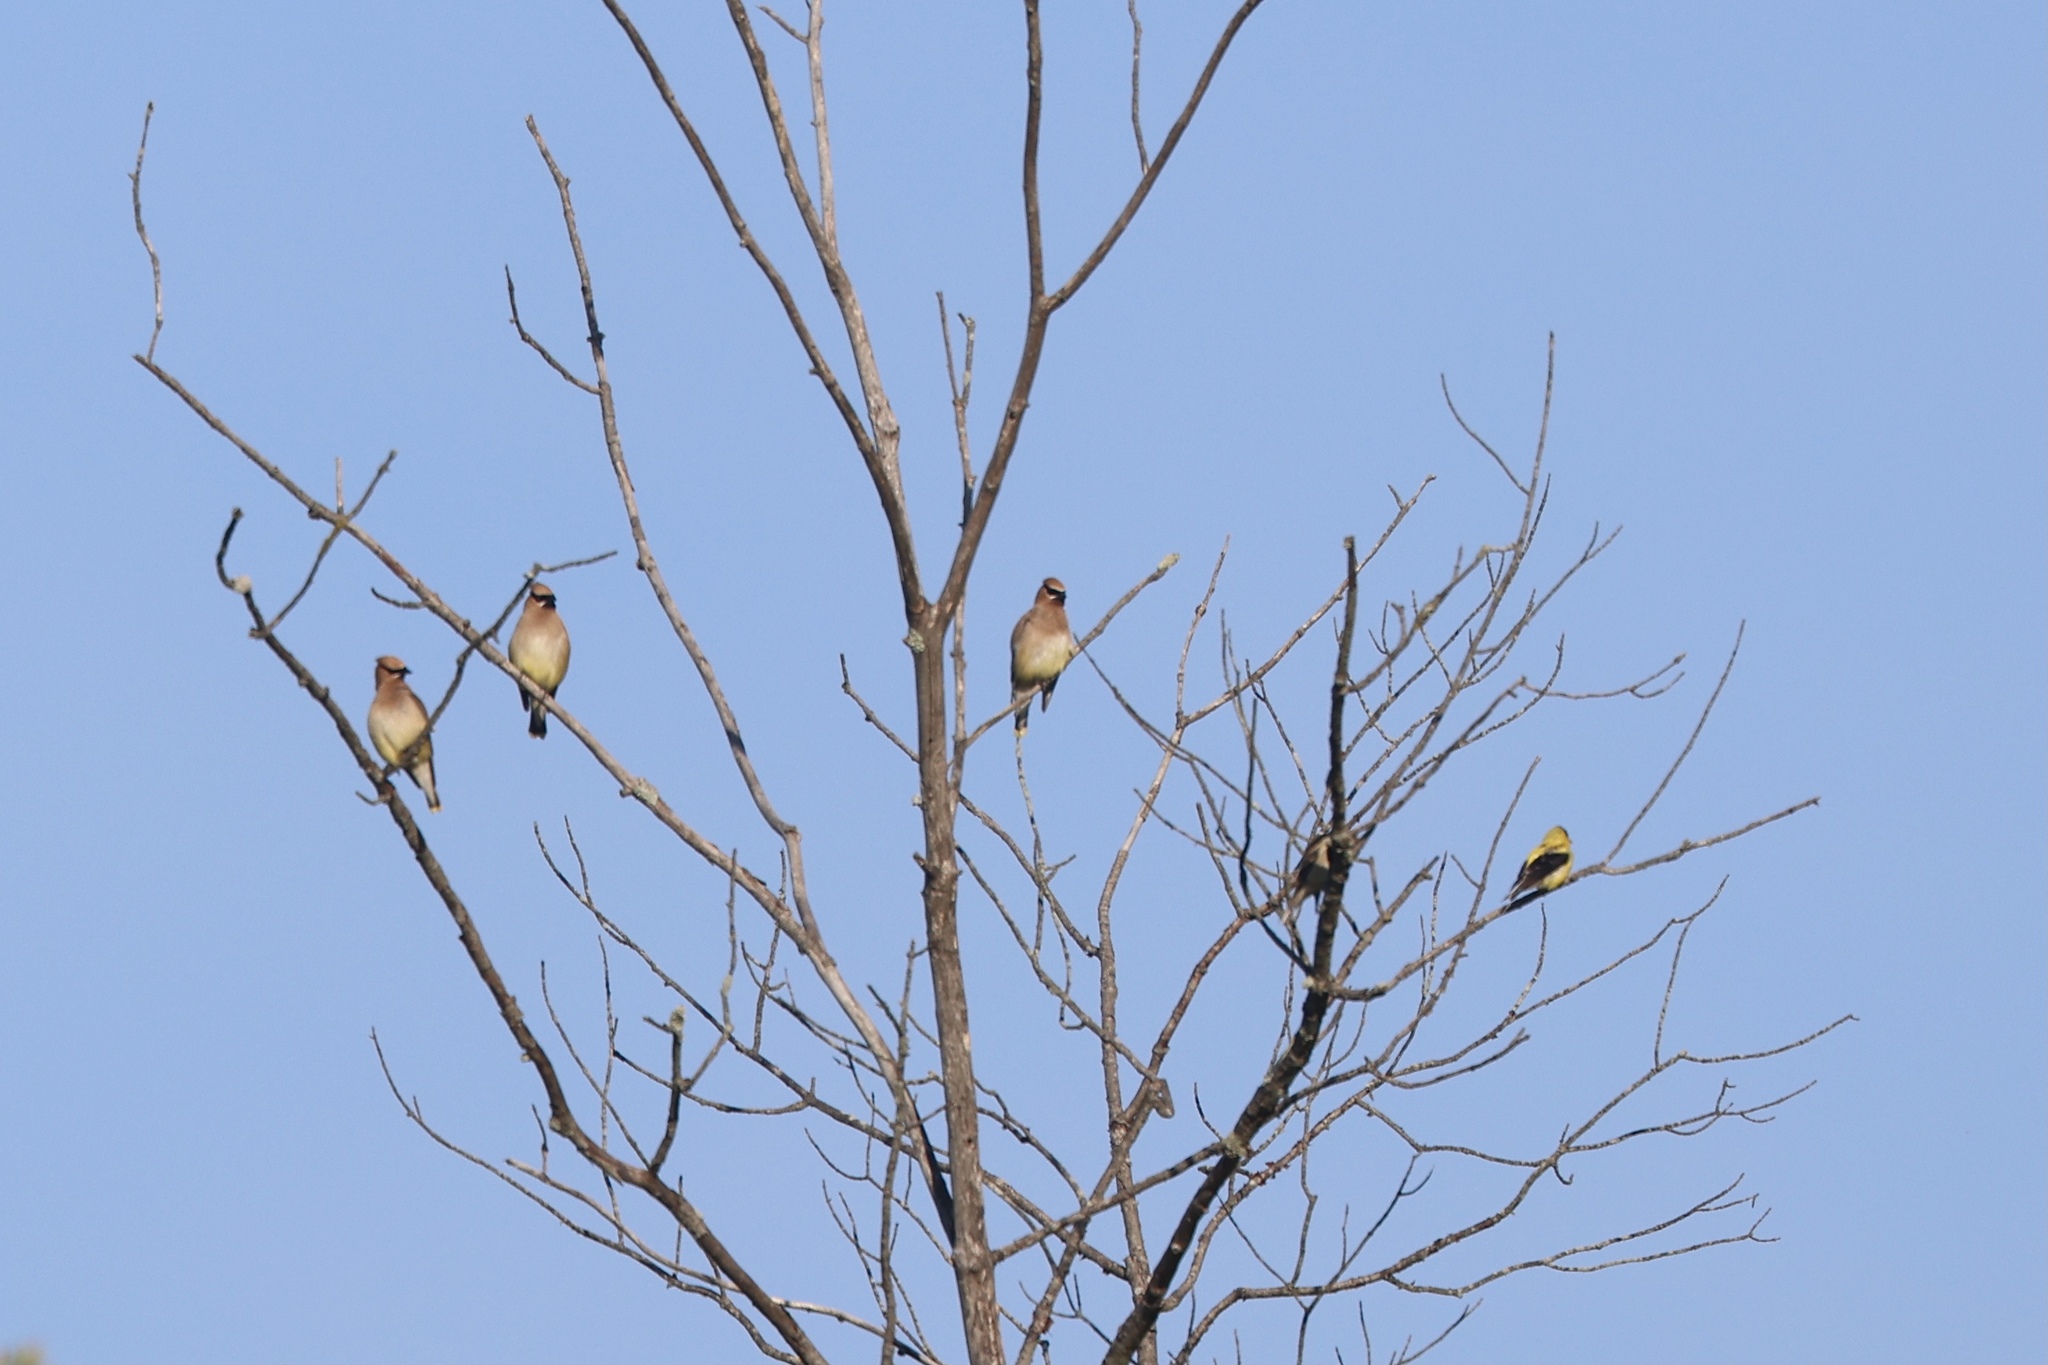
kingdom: Animalia
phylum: Chordata
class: Aves
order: Passeriformes
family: Bombycillidae
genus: Bombycilla
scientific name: Bombycilla cedrorum
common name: Cedar waxwing
